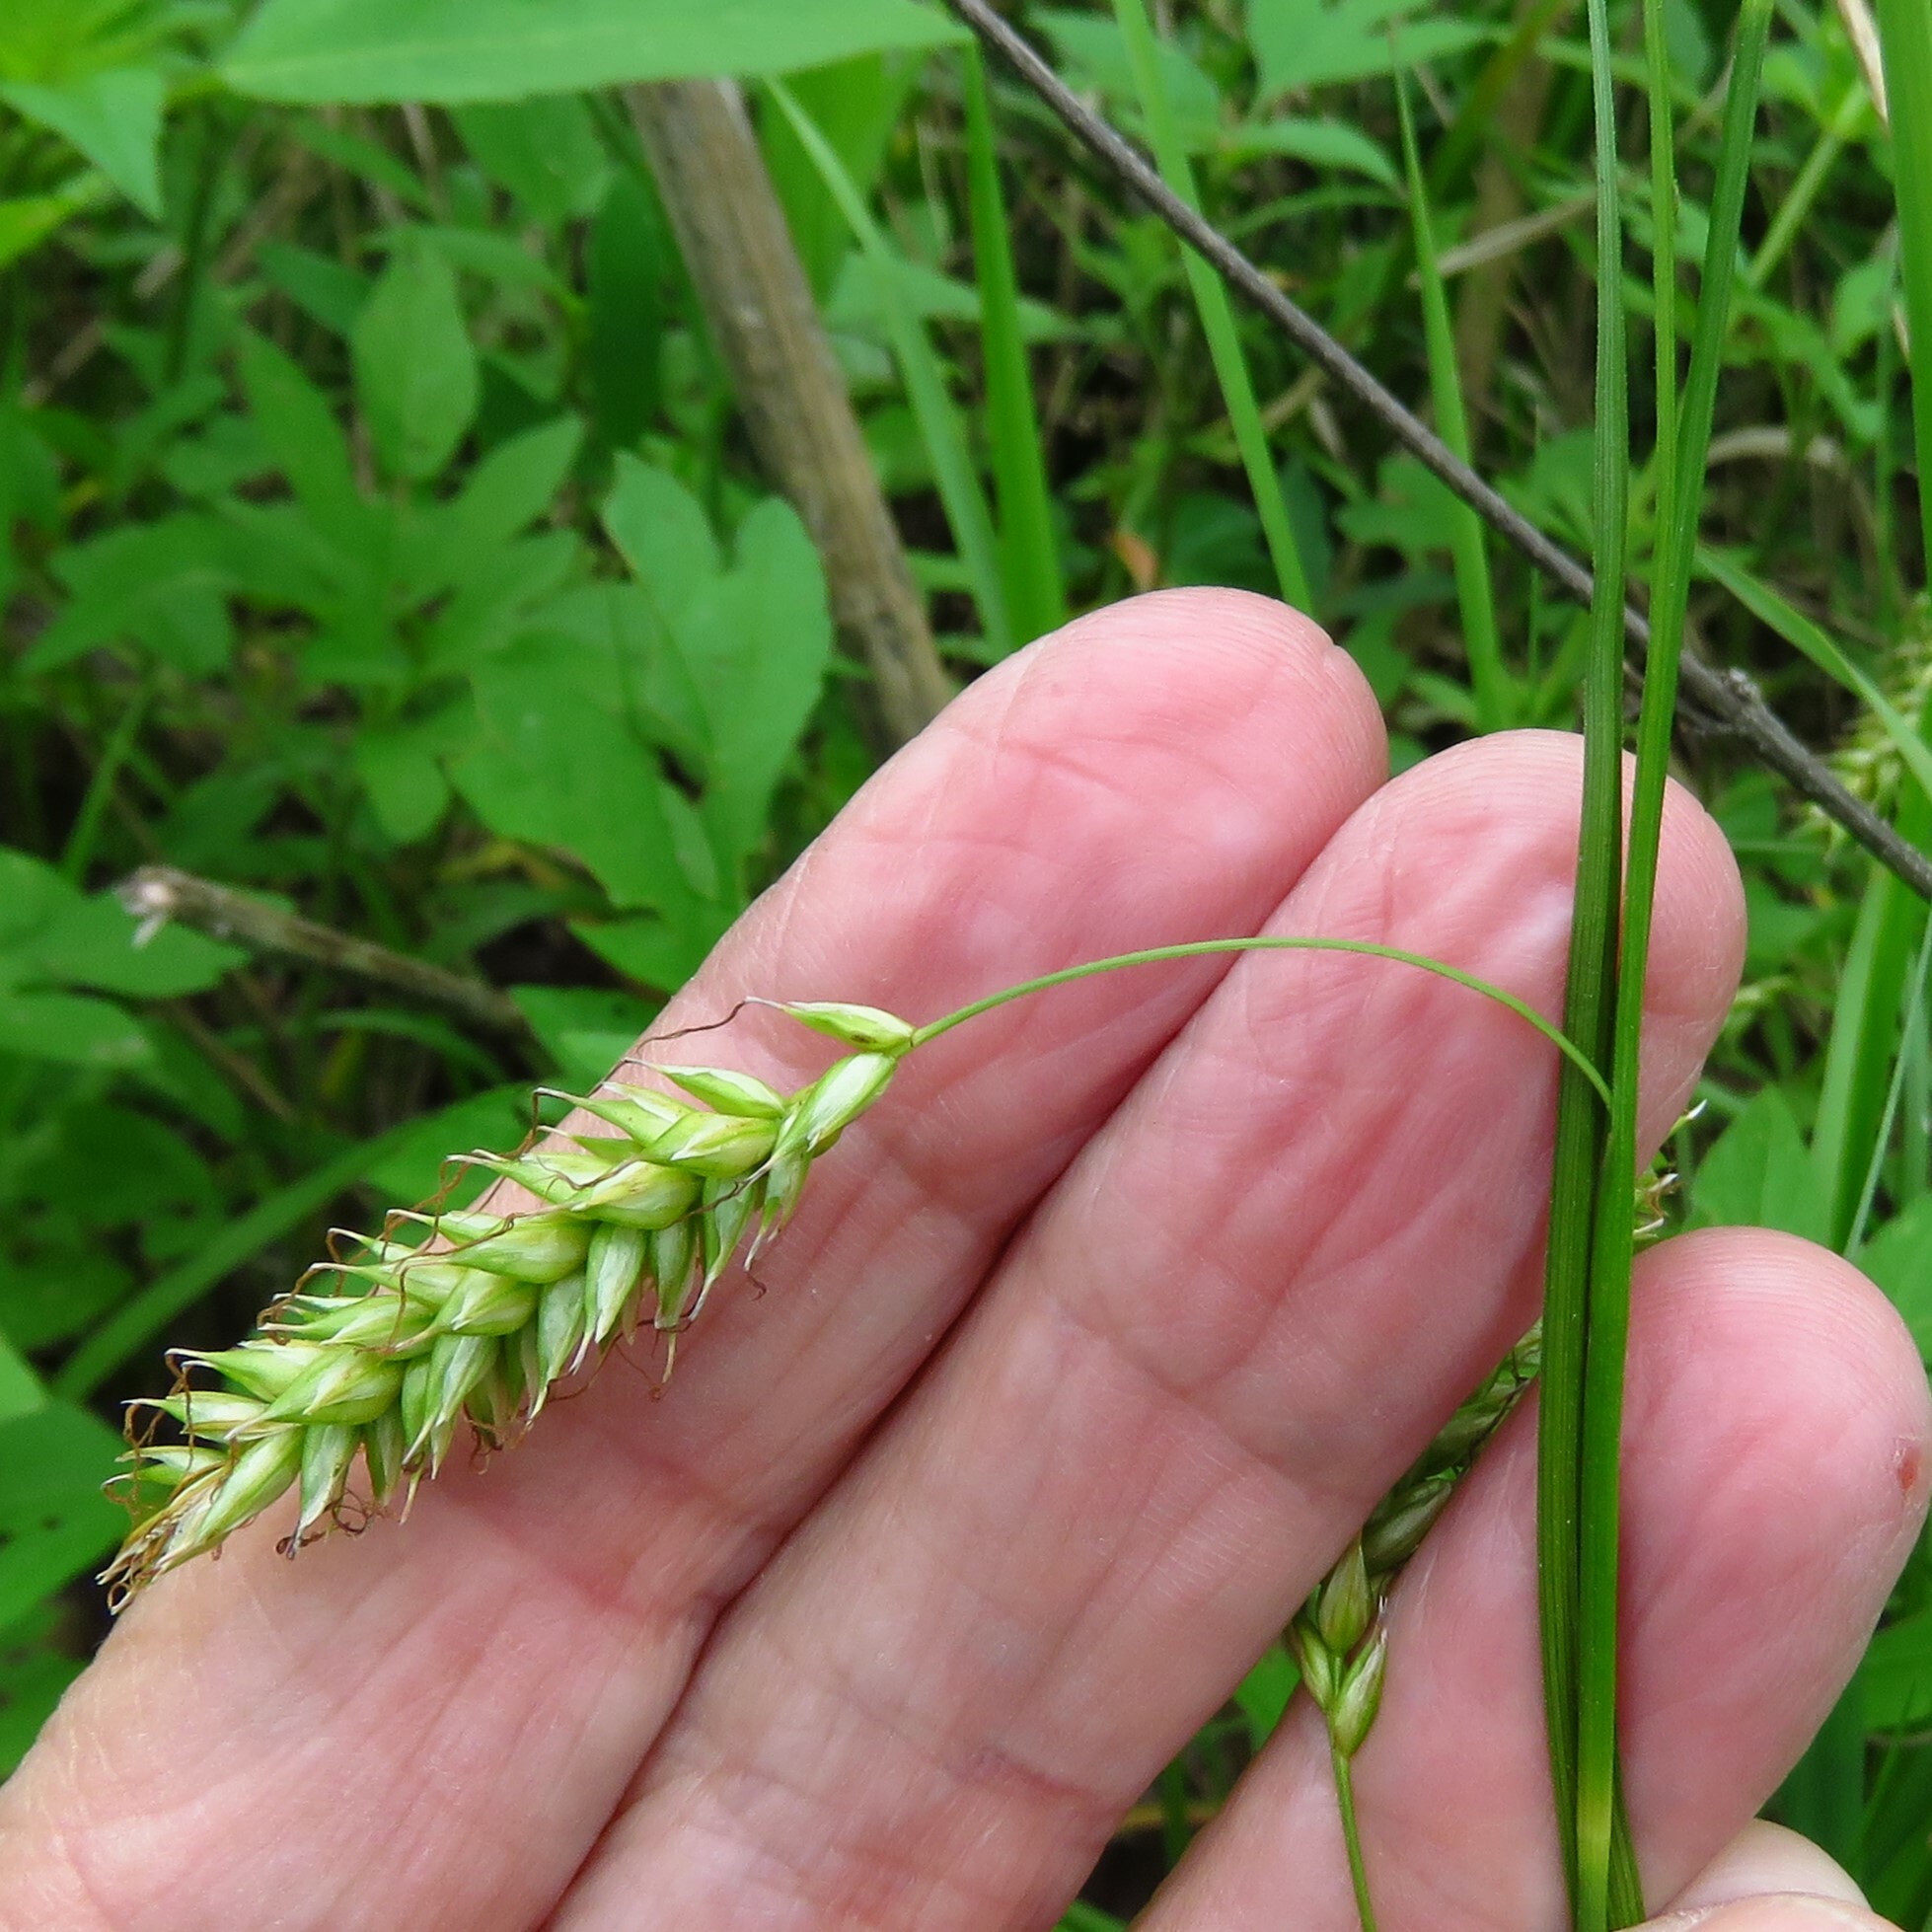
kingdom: Plantae
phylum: Tracheophyta
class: Liliopsida
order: Poales
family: Cyperaceae
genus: Carex
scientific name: Carex cherokeensis
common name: Cherokee sedge
